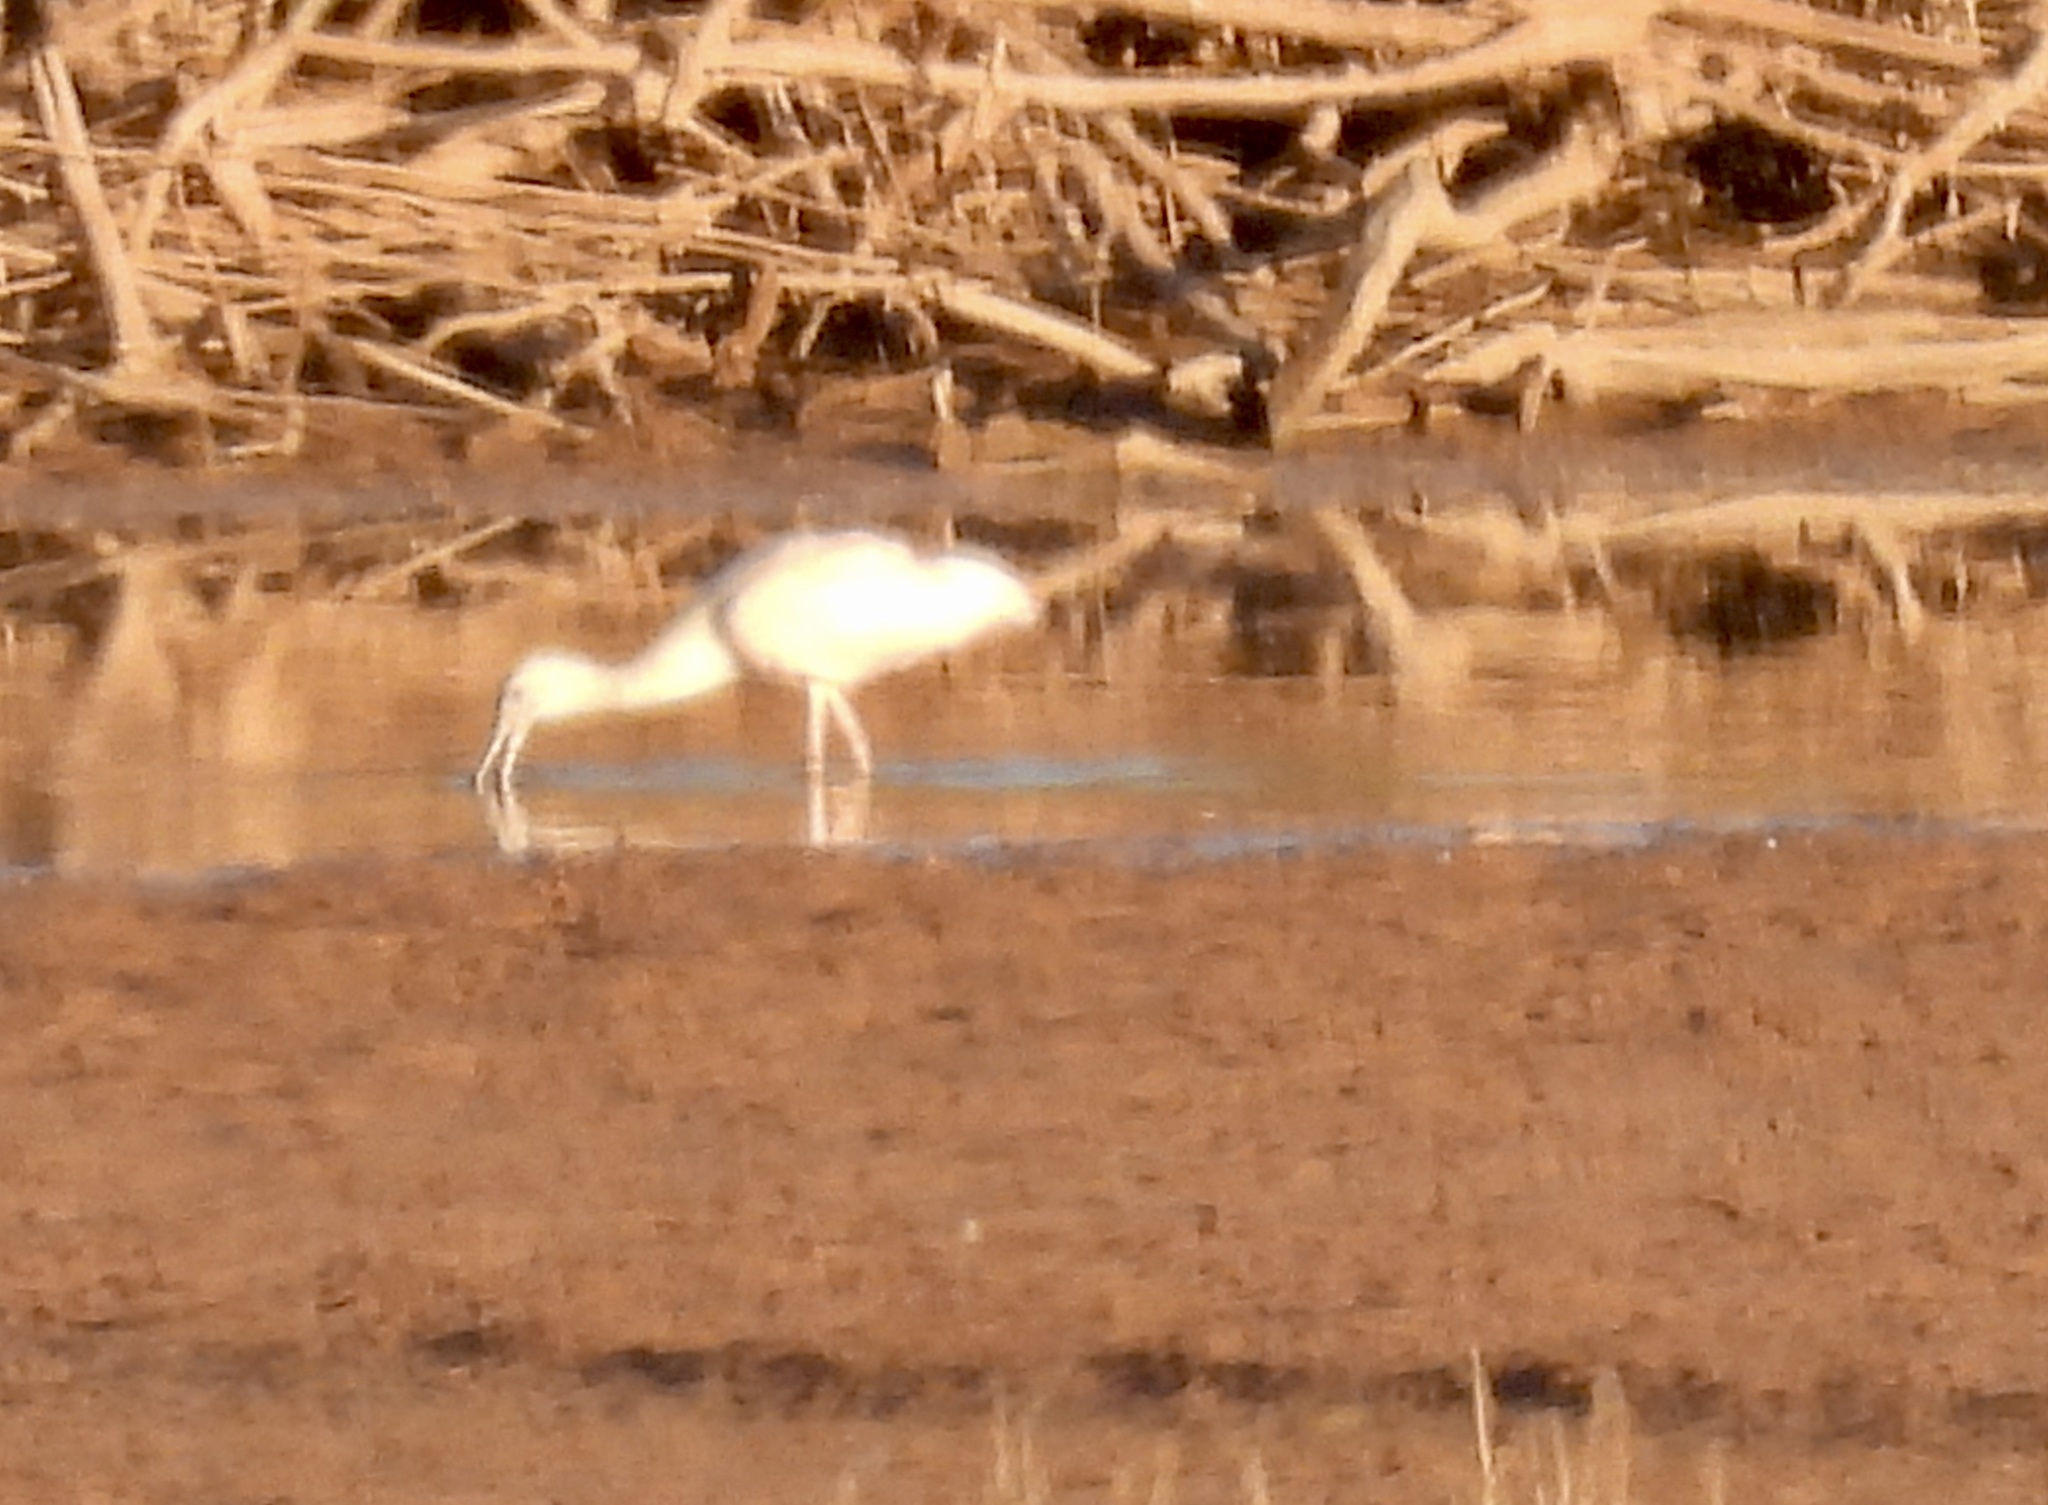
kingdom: Animalia
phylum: Chordata
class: Aves
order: Pelecaniformes
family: Threskiornithidae
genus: Platalea
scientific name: Platalea ajaja
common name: Roseate spoonbill
